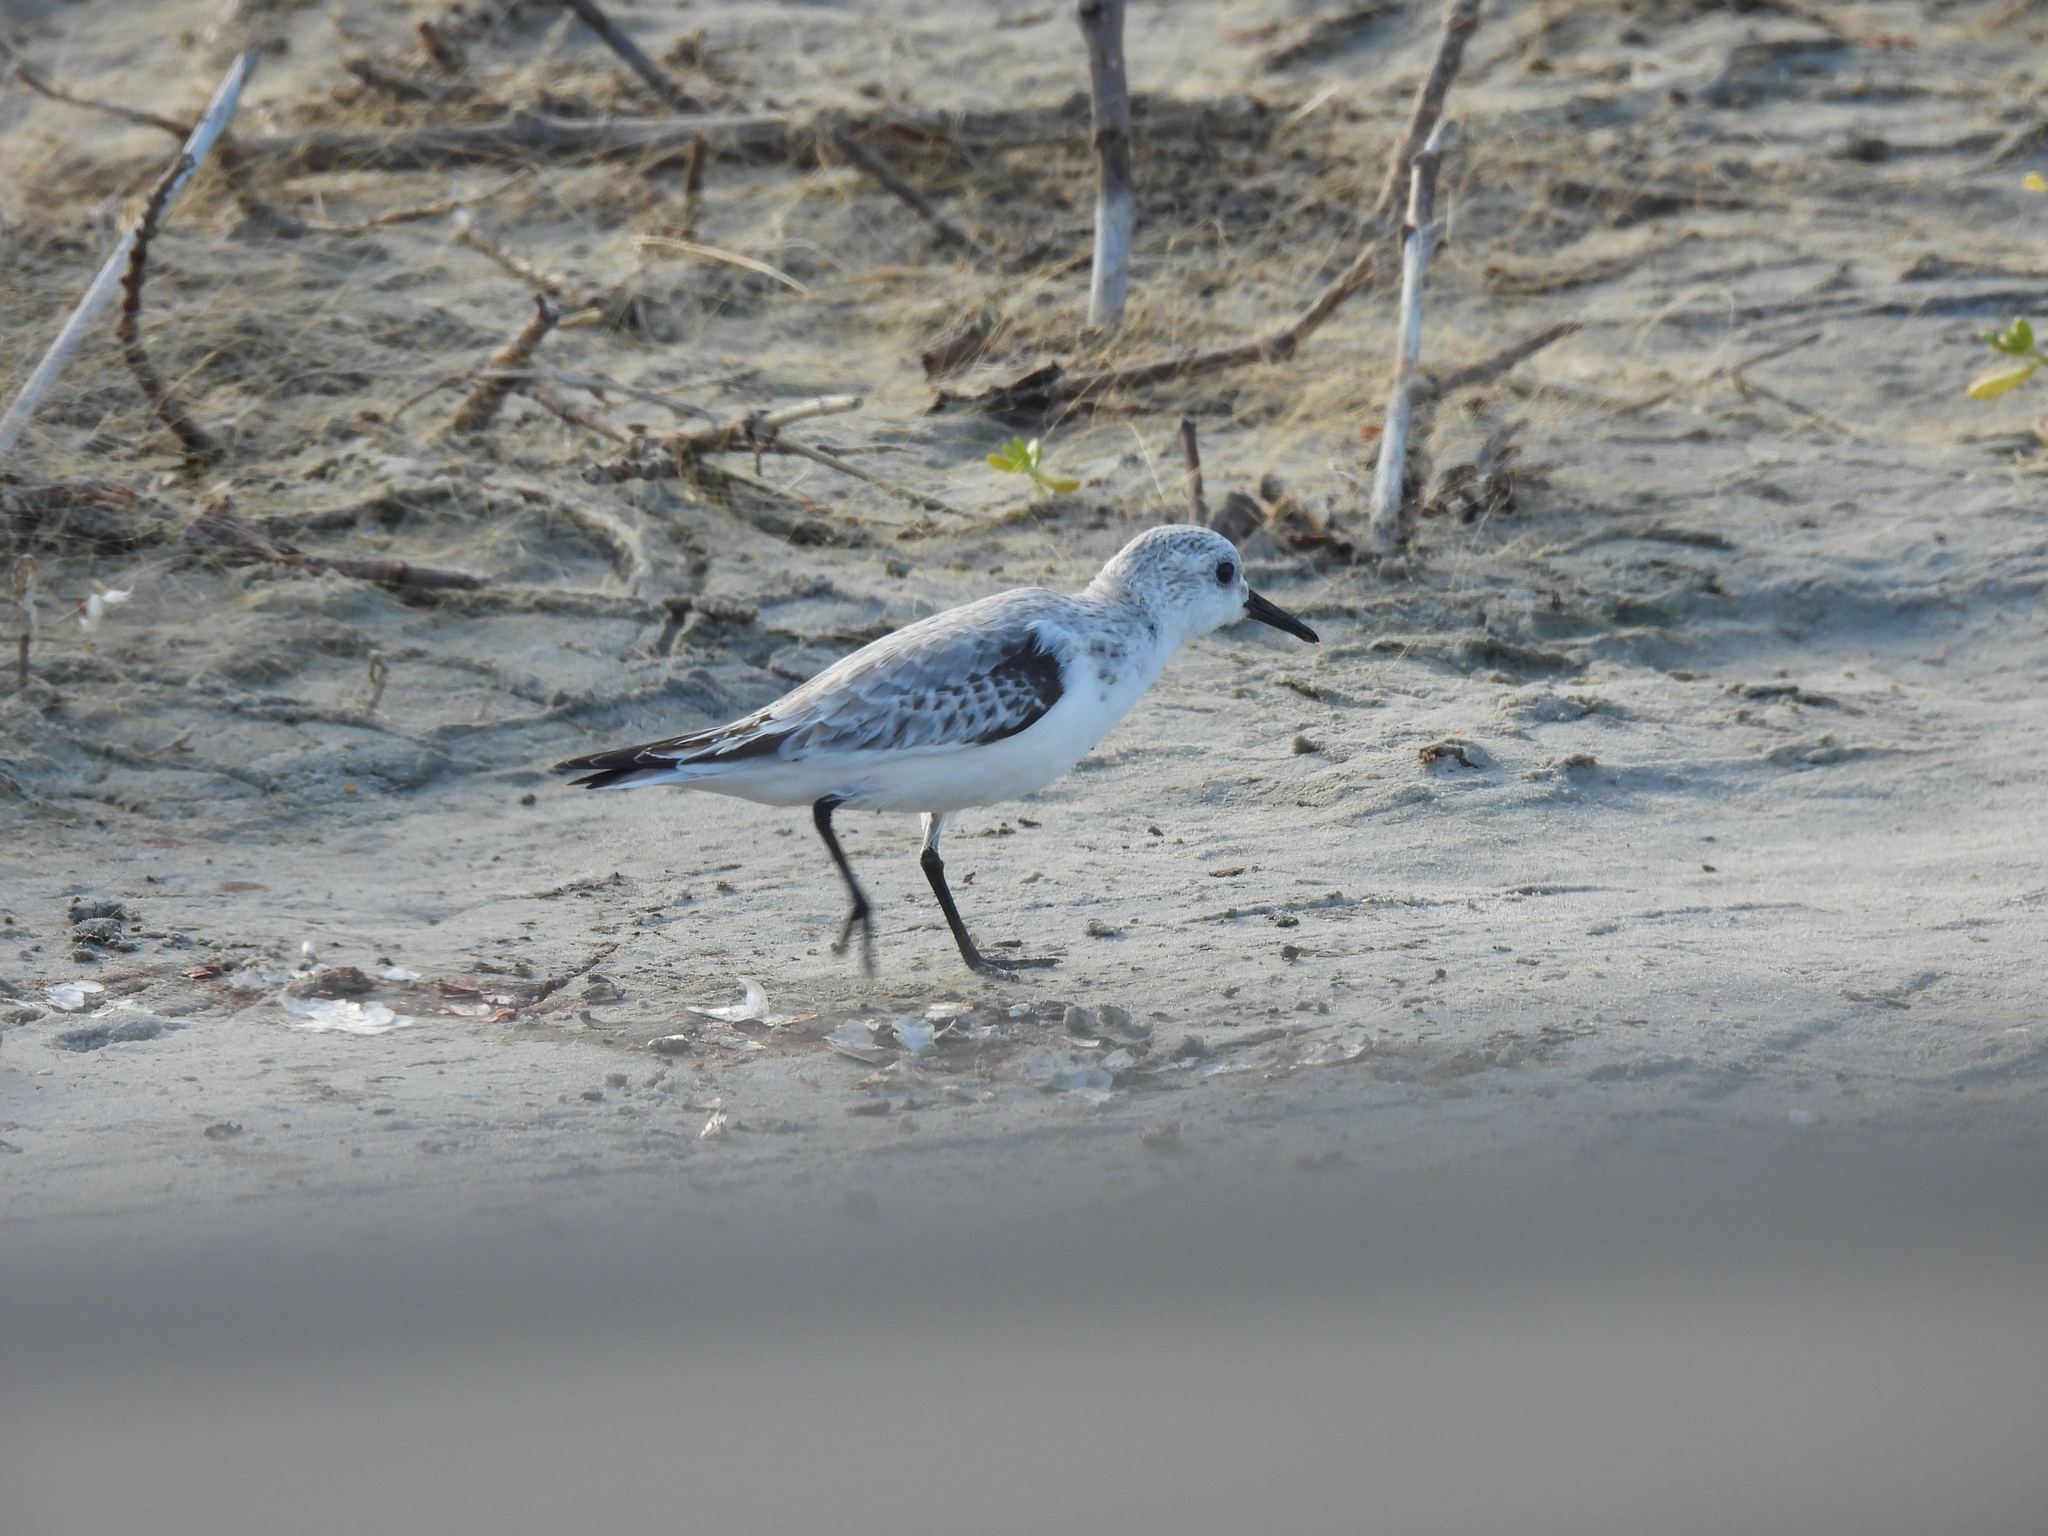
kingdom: Animalia
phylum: Chordata
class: Aves
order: Charadriiformes
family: Scolopacidae
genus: Calidris
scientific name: Calidris alba
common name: Sanderling
